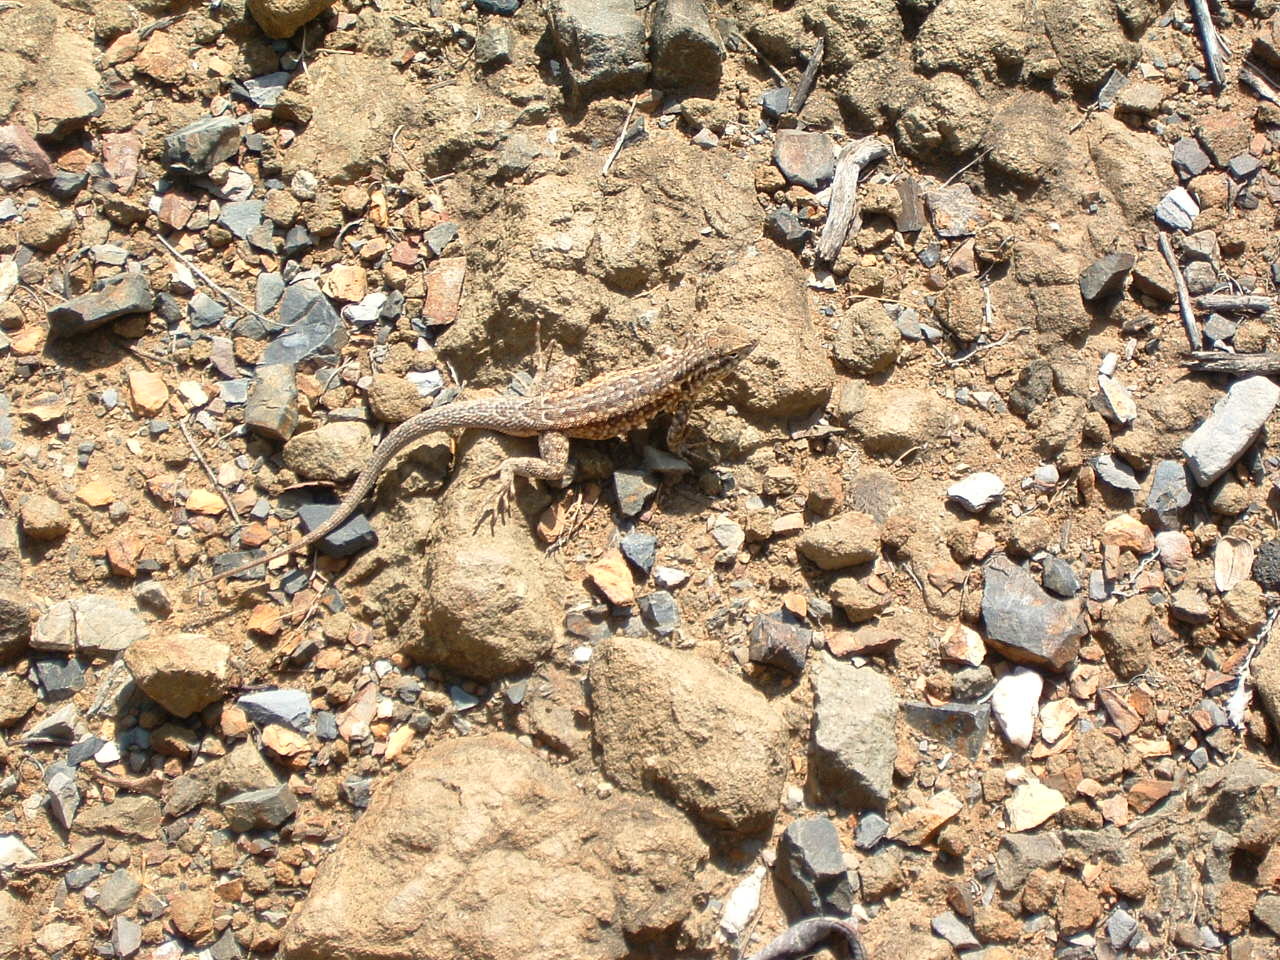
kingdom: Animalia
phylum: Chordata
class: Squamata
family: Phrynosomatidae
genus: Uta
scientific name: Uta stansburiana
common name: Side-blotched lizard
